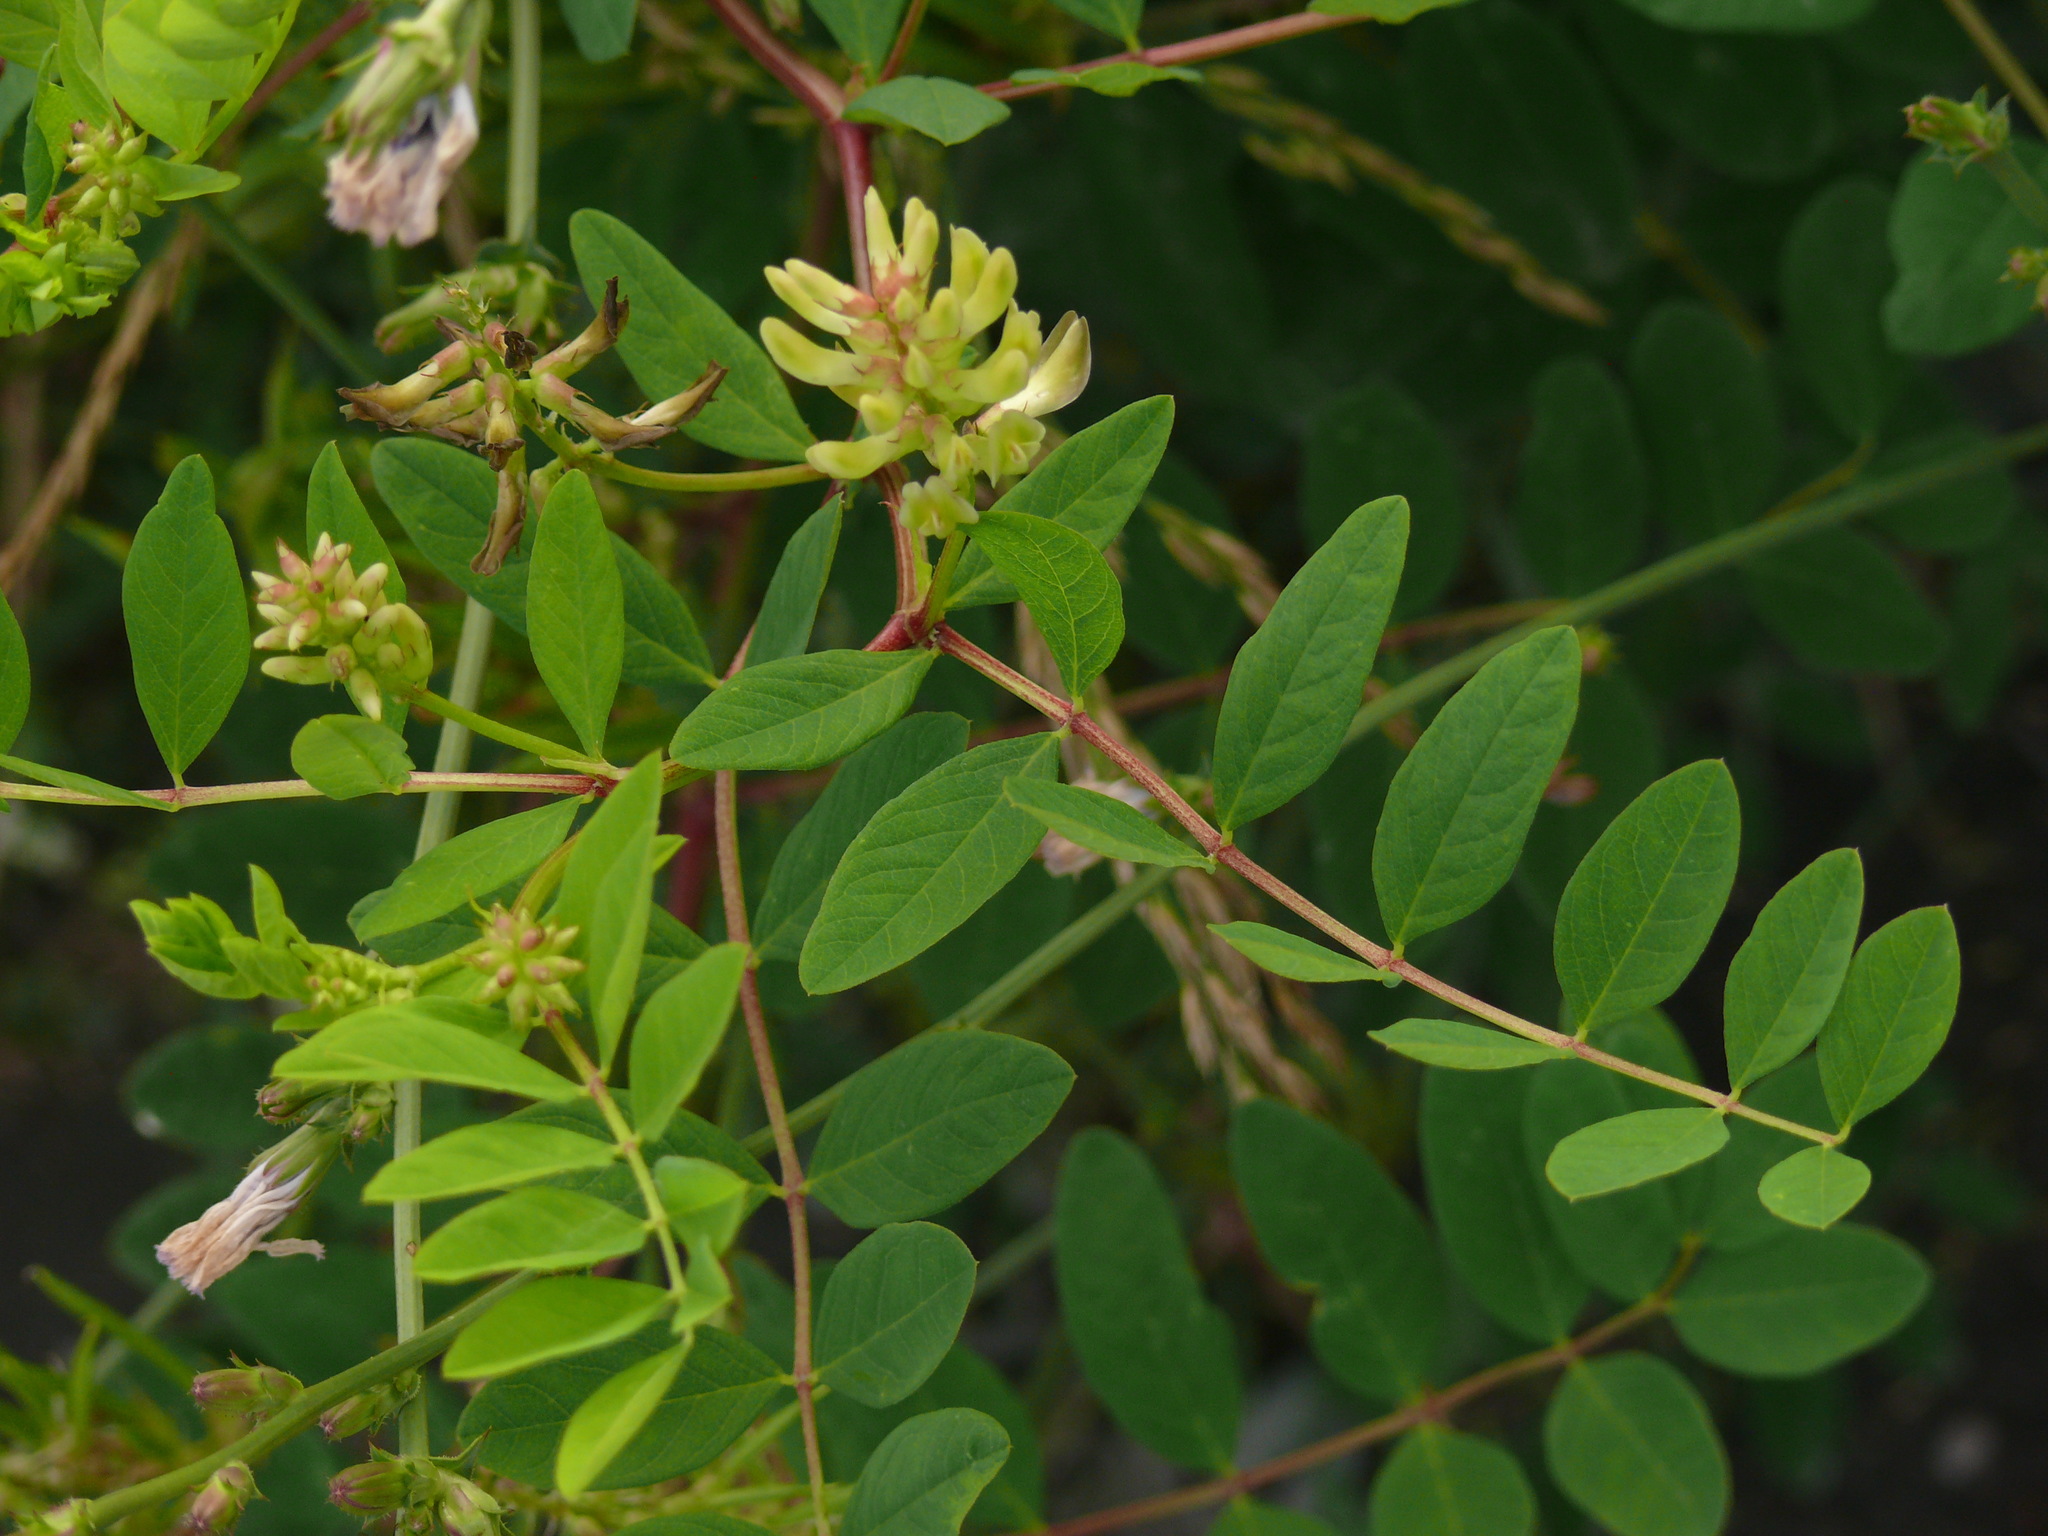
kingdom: Plantae
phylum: Tracheophyta
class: Magnoliopsida
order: Fabales
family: Fabaceae
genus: Astragalus
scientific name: Astragalus glycyphyllos
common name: Wild liquorice
